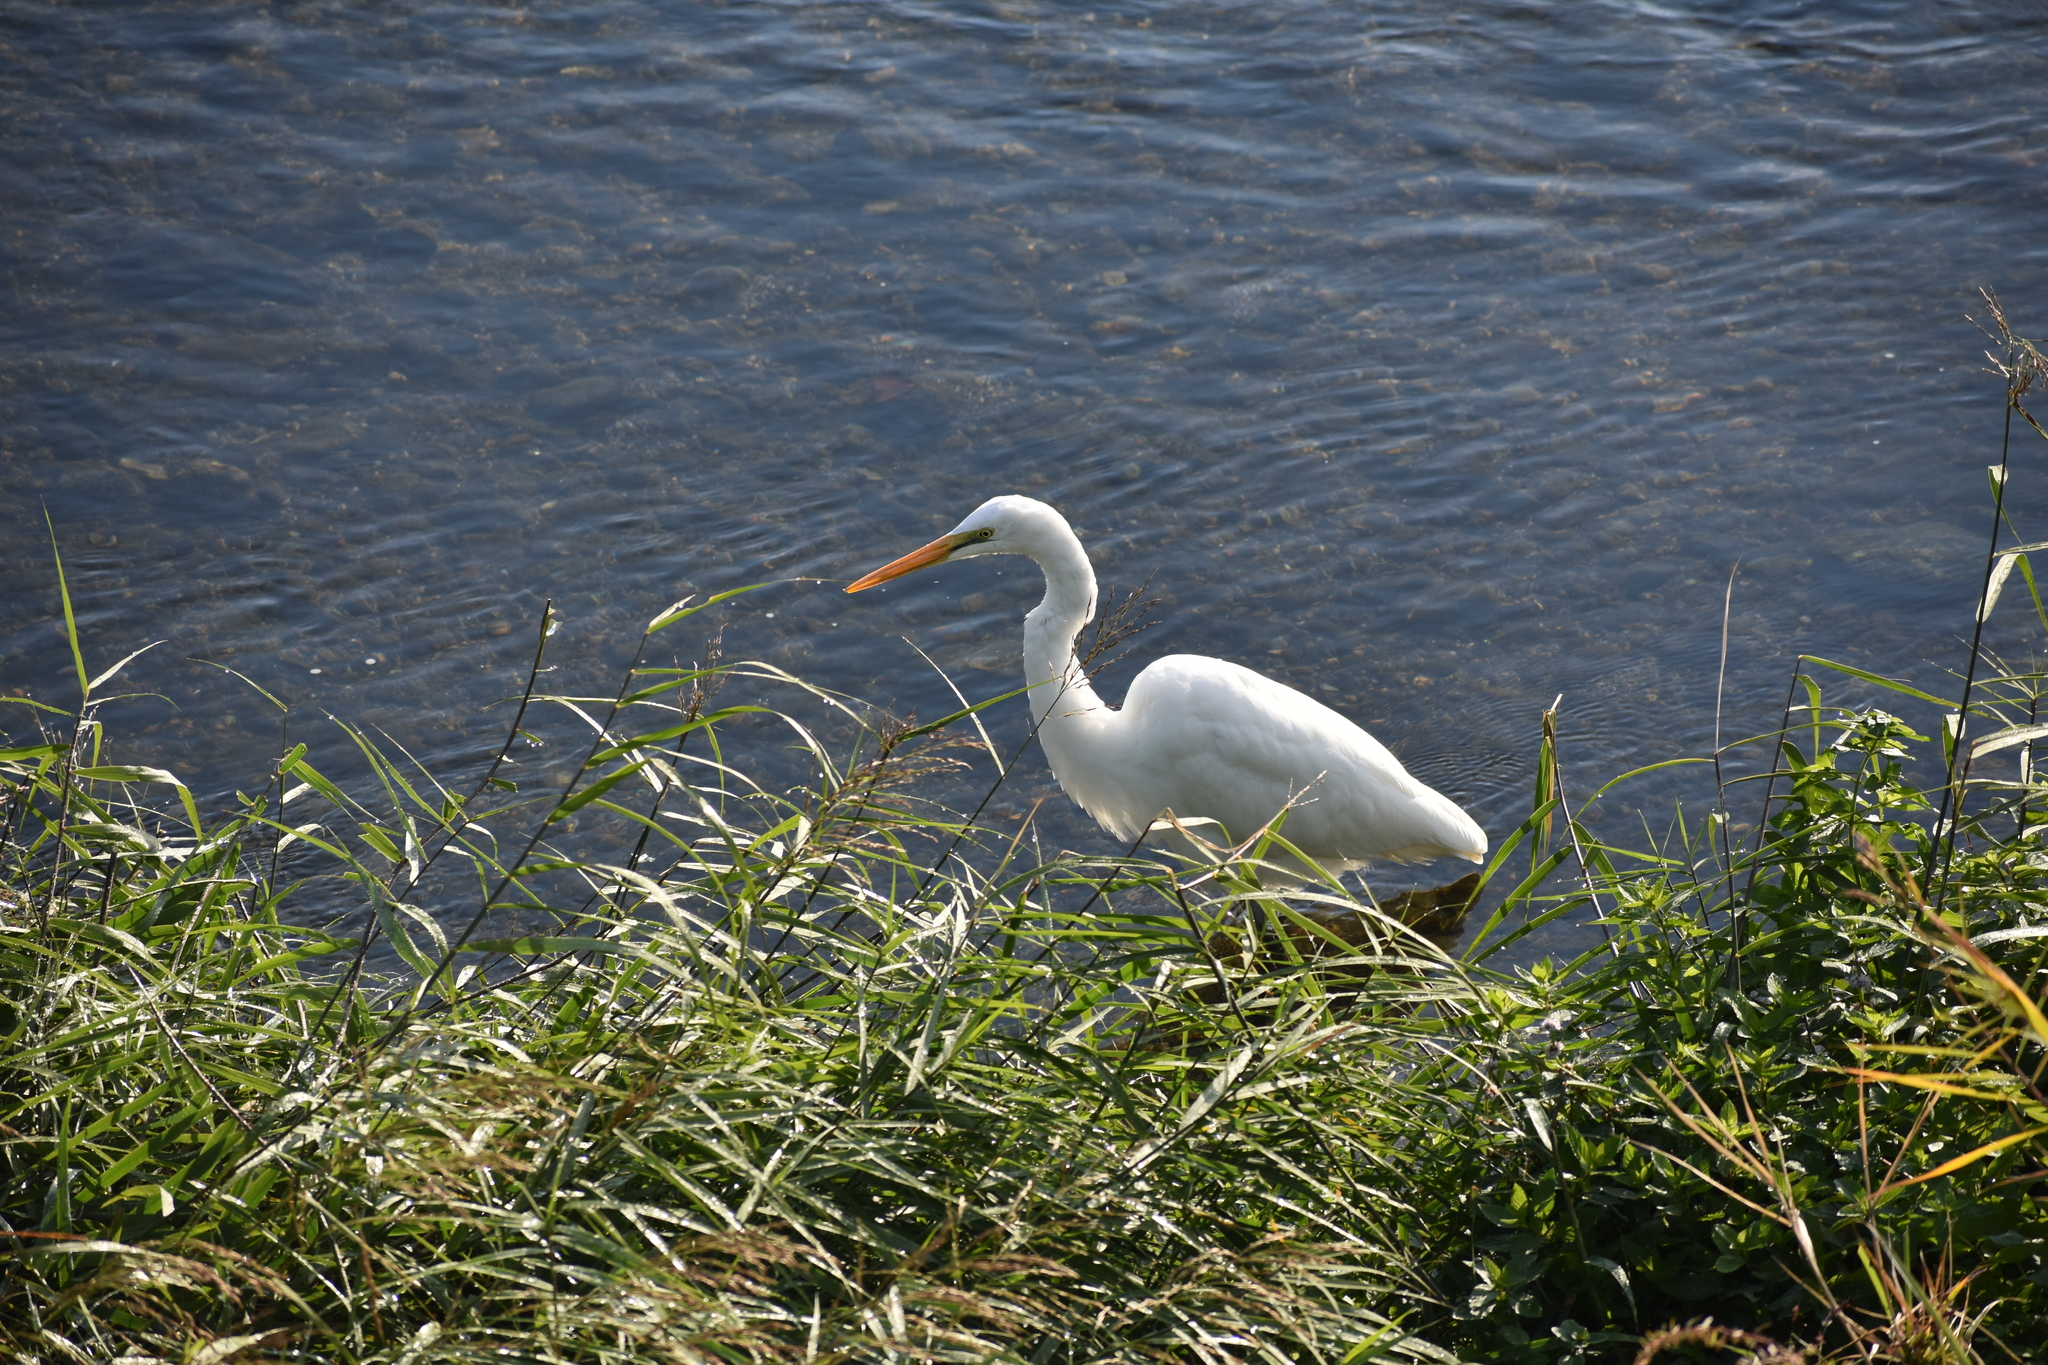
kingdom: Animalia
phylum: Chordata
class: Aves
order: Pelecaniformes
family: Ardeidae
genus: Ardea
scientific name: Ardea alba
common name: Great egret
